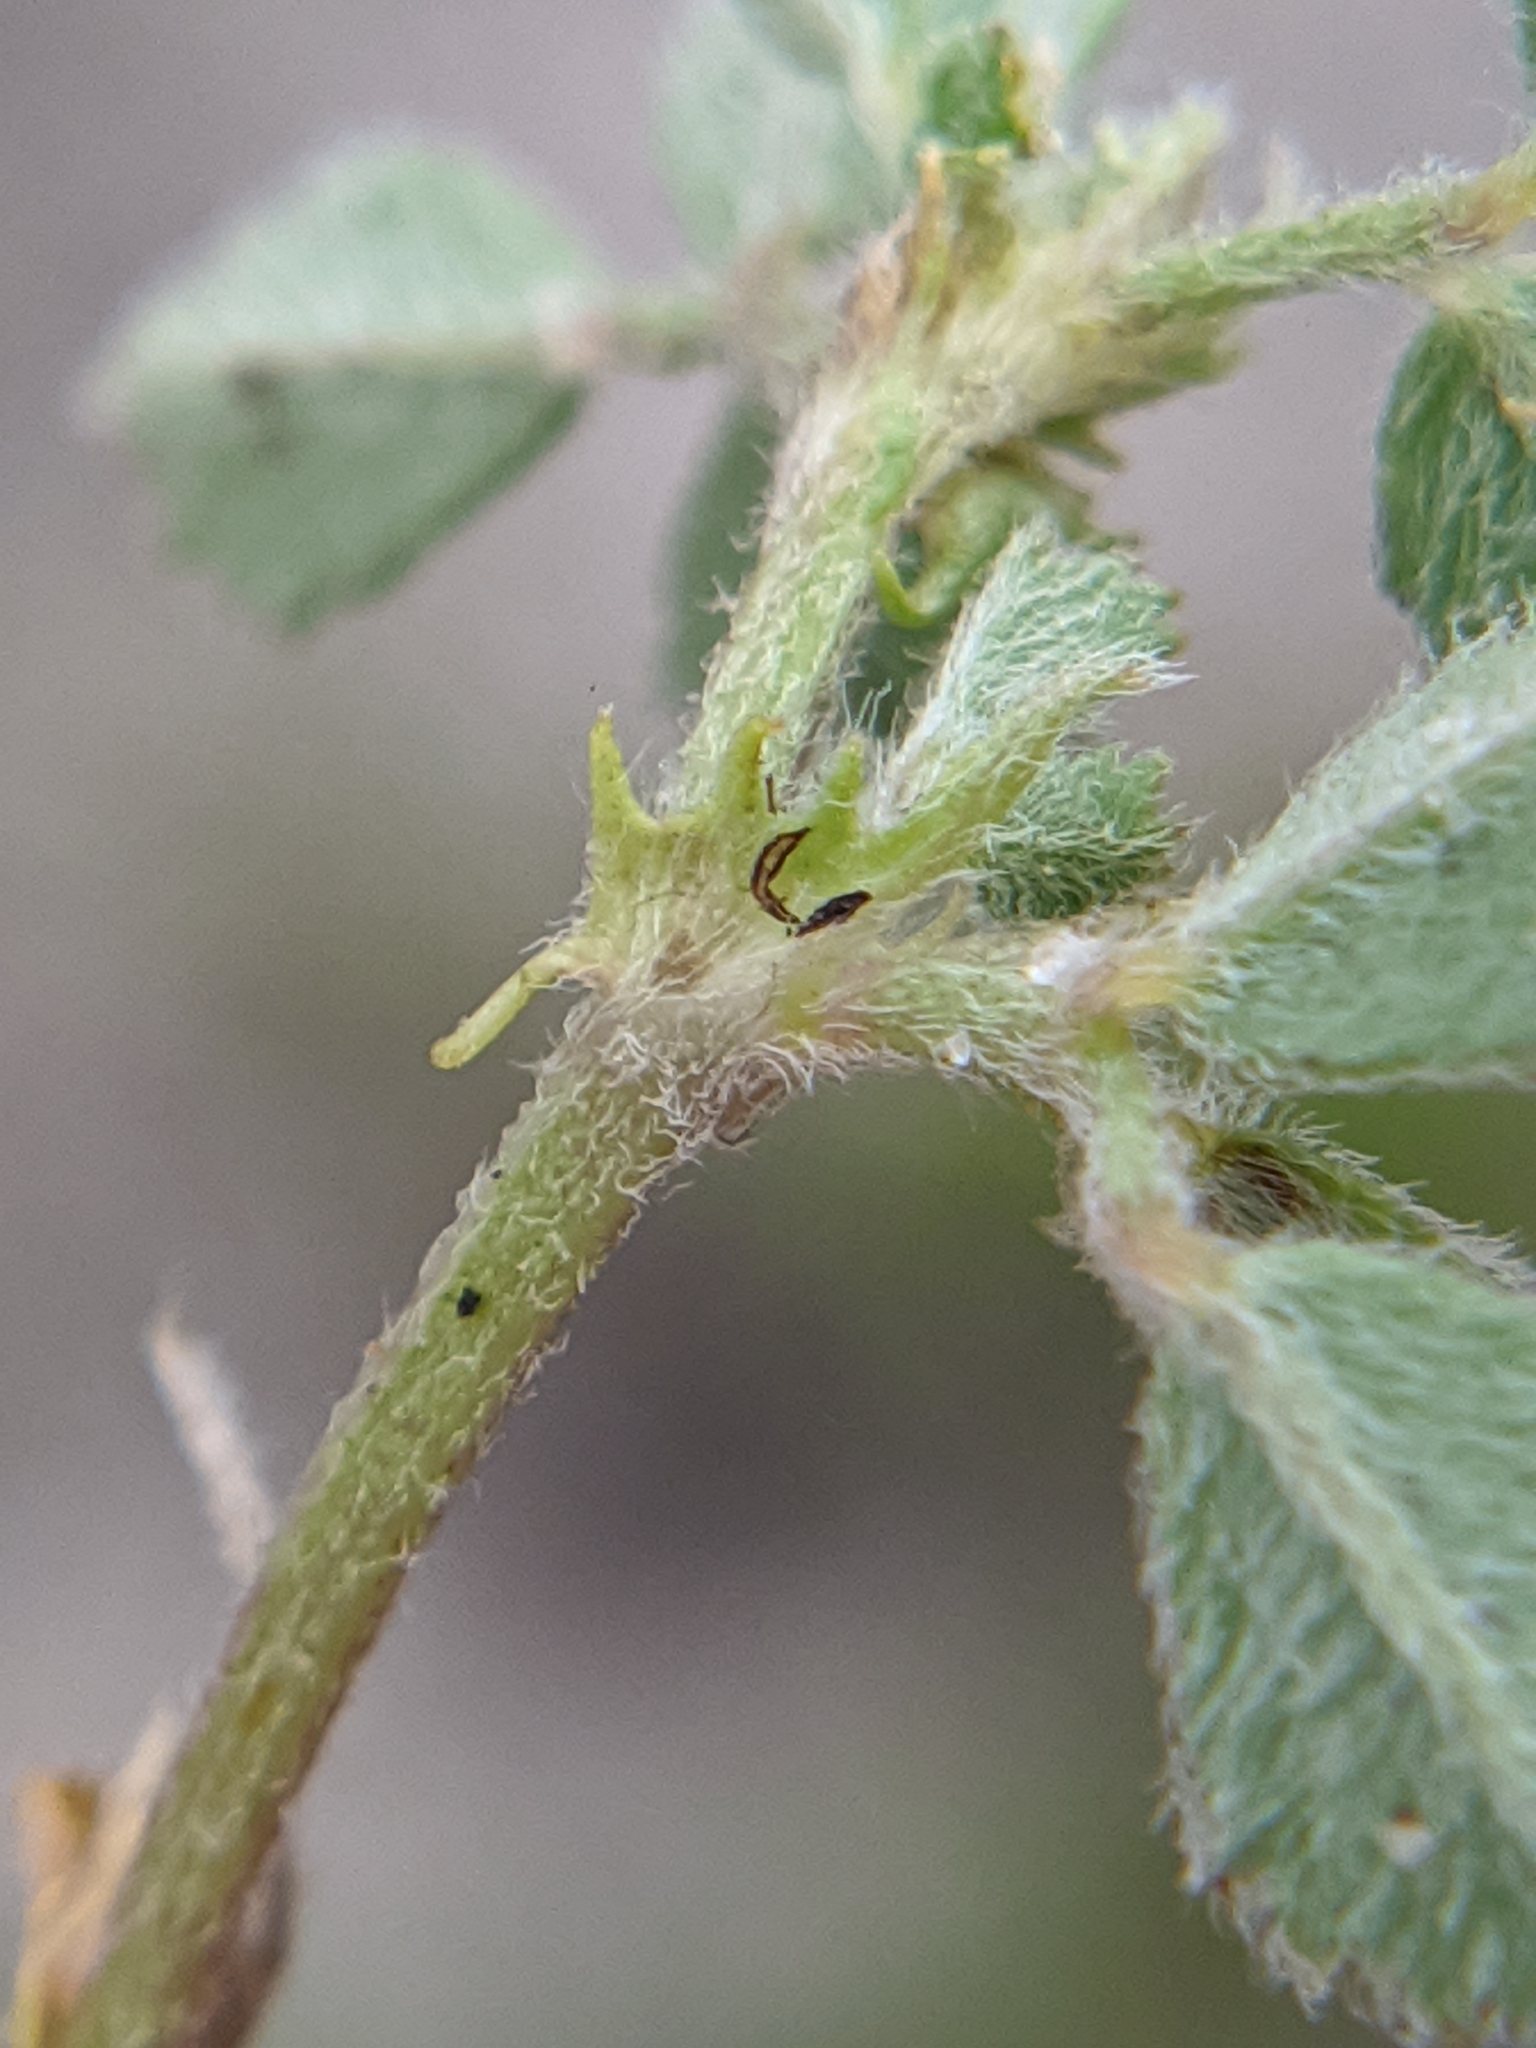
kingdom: Plantae
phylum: Tracheophyta
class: Magnoliopsida
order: Fabales
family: Fabaceae
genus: Medicago
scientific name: Medicago littoralis
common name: Shore medick
